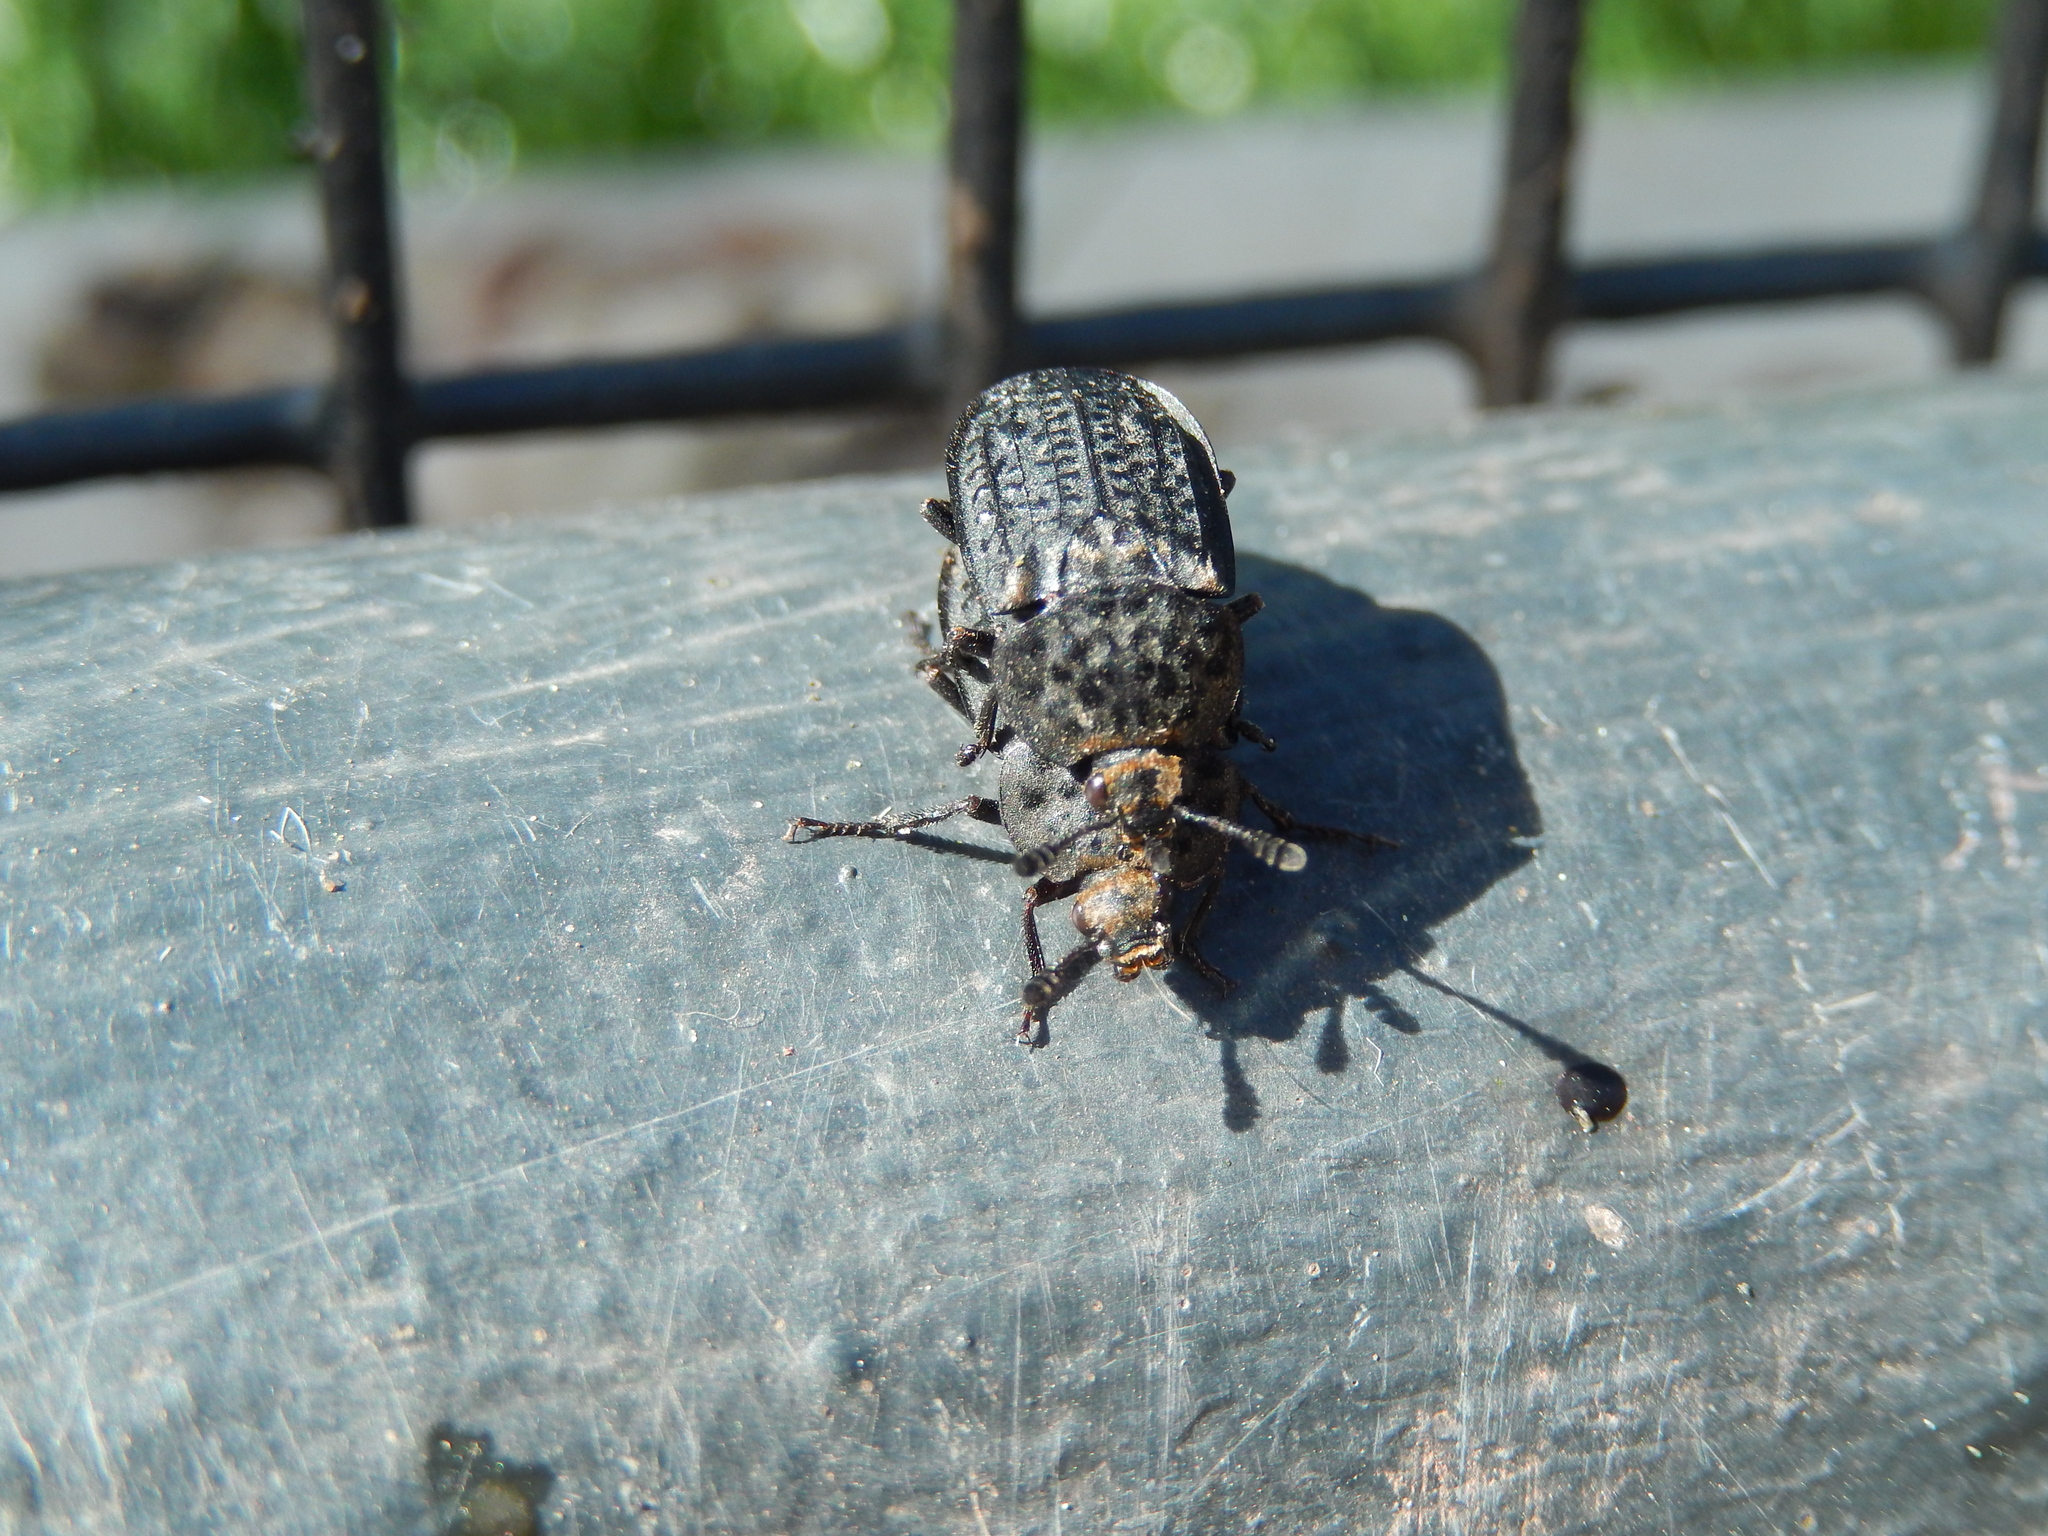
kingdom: Animalia
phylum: Arthropoda
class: Insecta
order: Coleoptera
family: Staphylinidae
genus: Thanatophilus
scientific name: Thanatophilus rugosus
